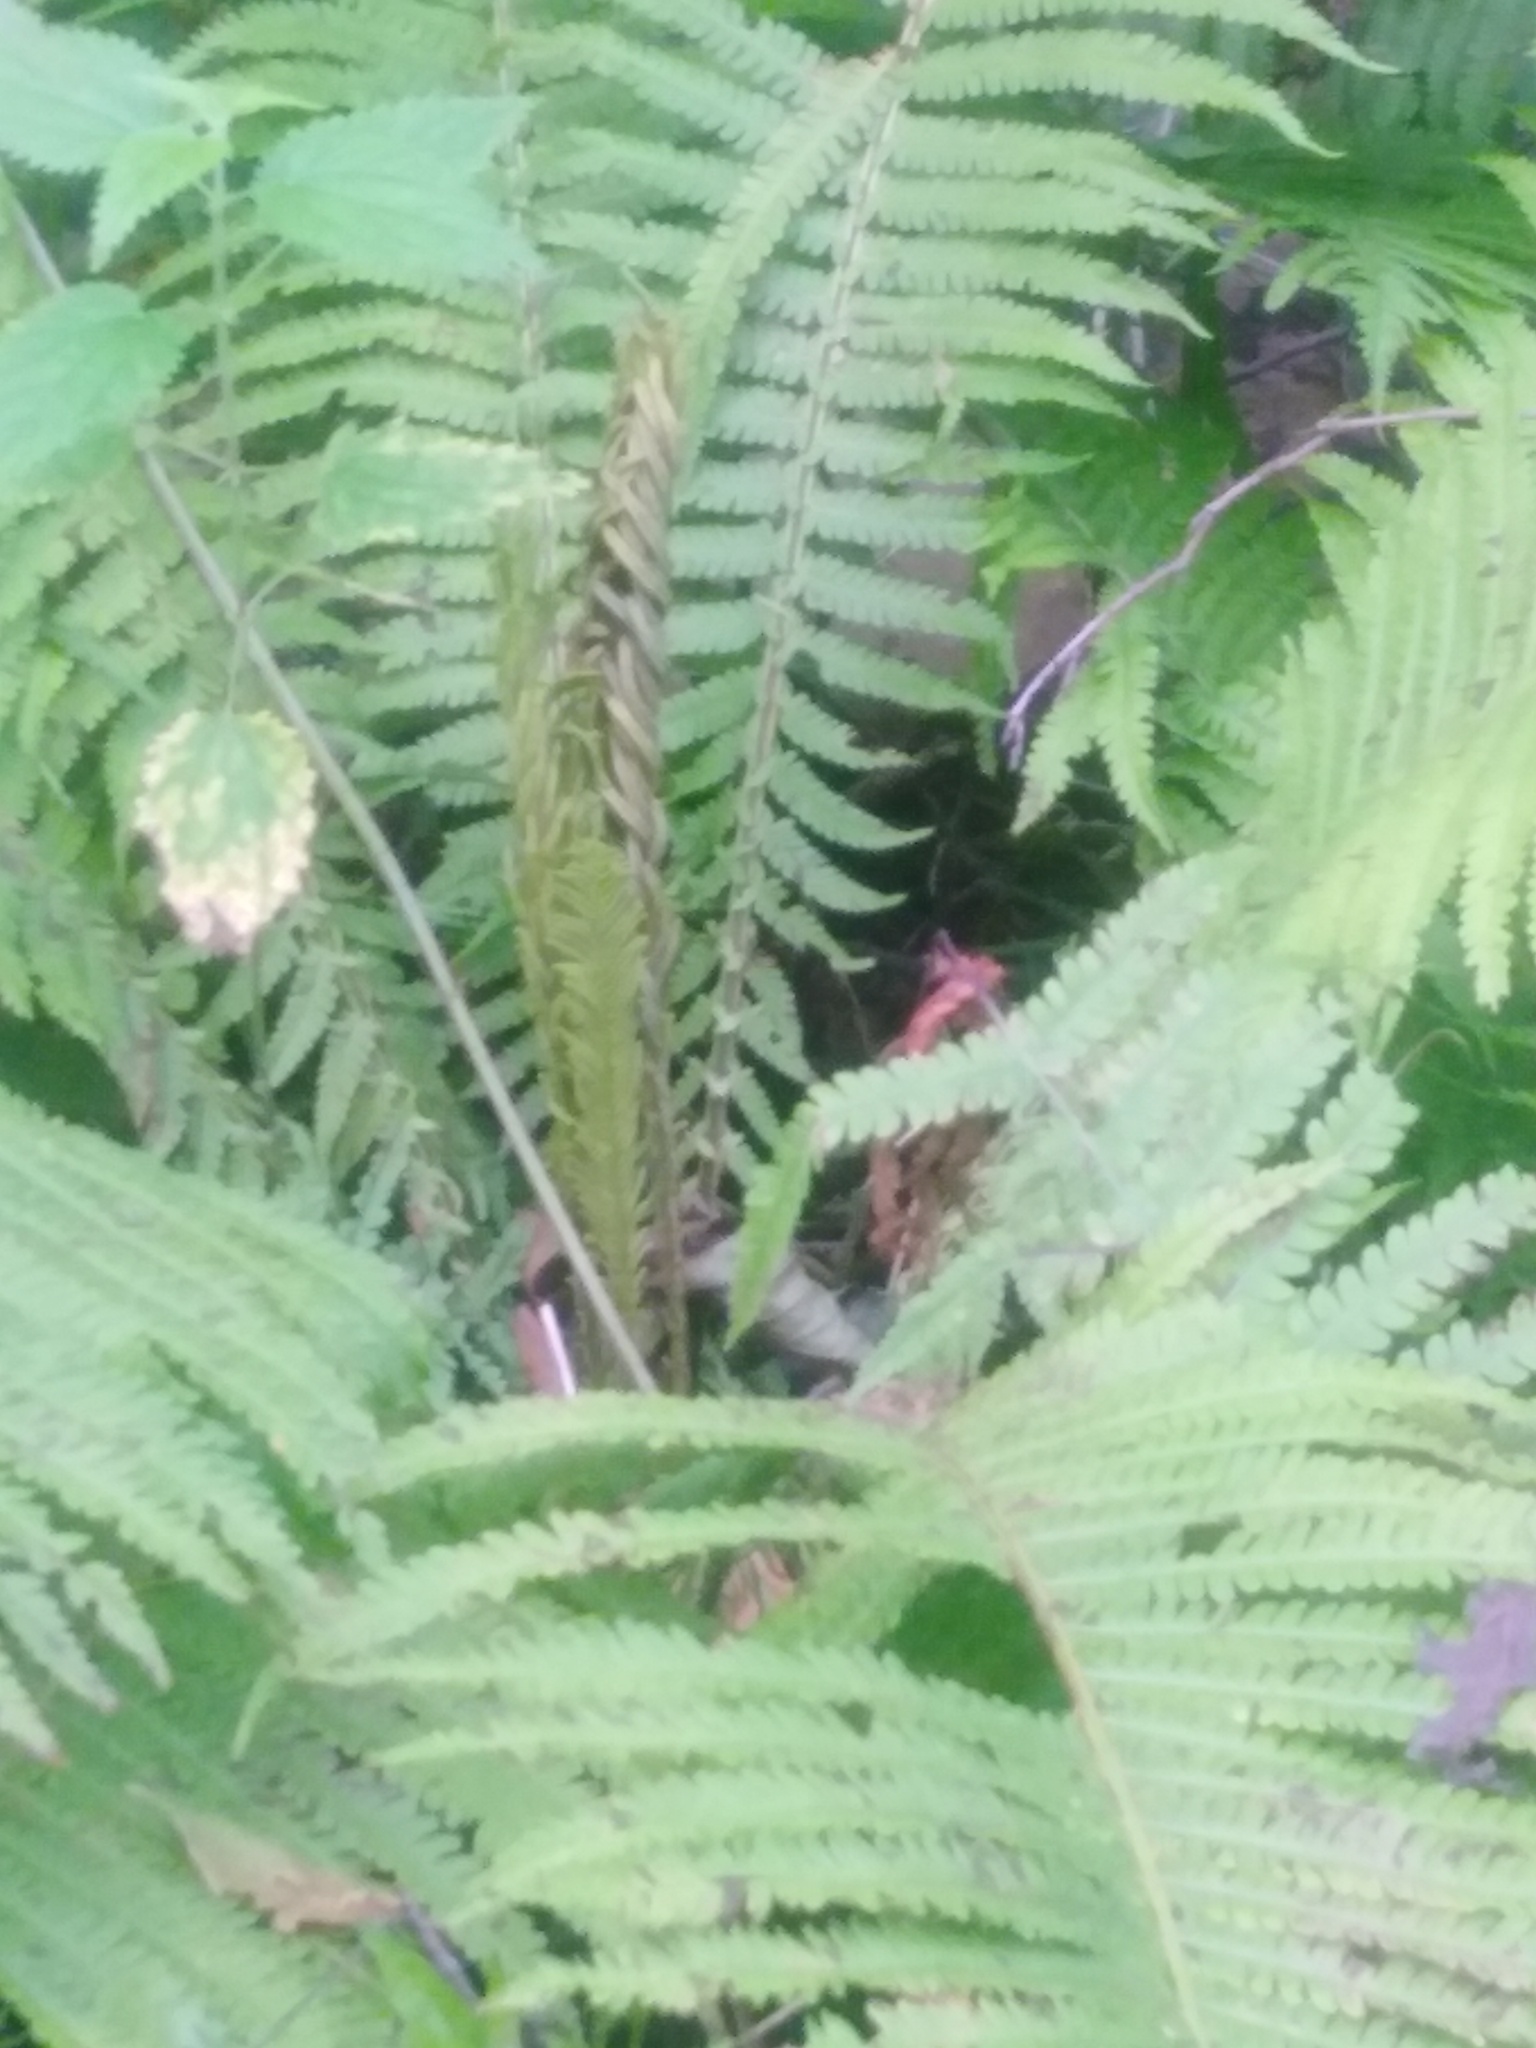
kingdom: Plantae
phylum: Tracheophyta
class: Polypodiopsida
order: Polypodiales
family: Onocleaceae
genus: Matteuccia
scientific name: Matteuccia struthiopteris
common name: Ostrich fern
